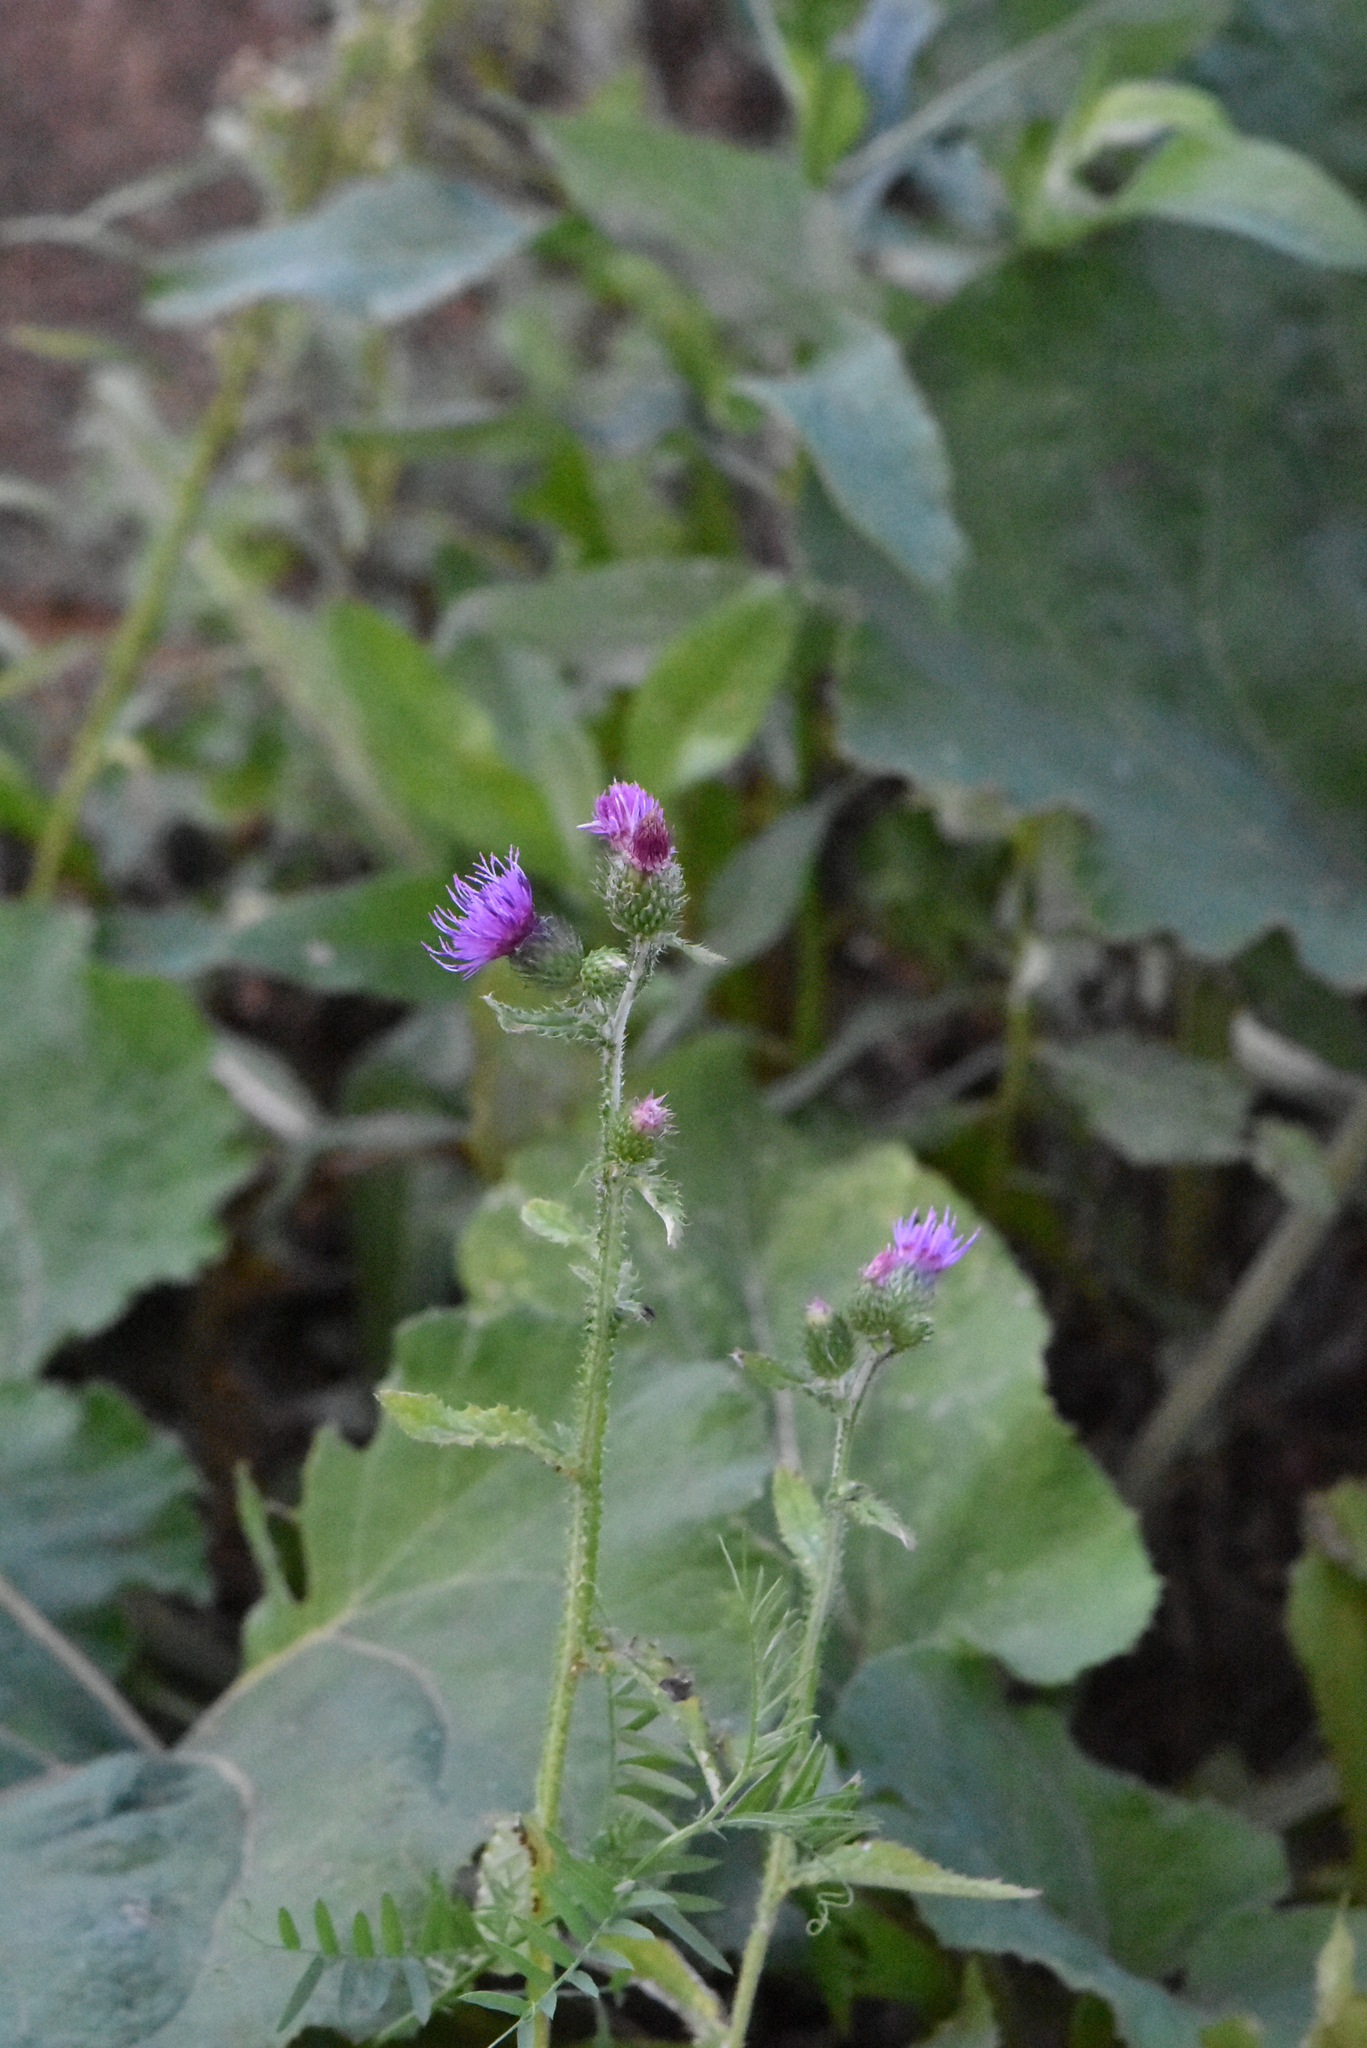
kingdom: Plantae
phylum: Tracheophyta
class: Magnoliopsida
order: Asterales
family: Asteraceae
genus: Carduus
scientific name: Carduus crispus
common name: Welted thistle
